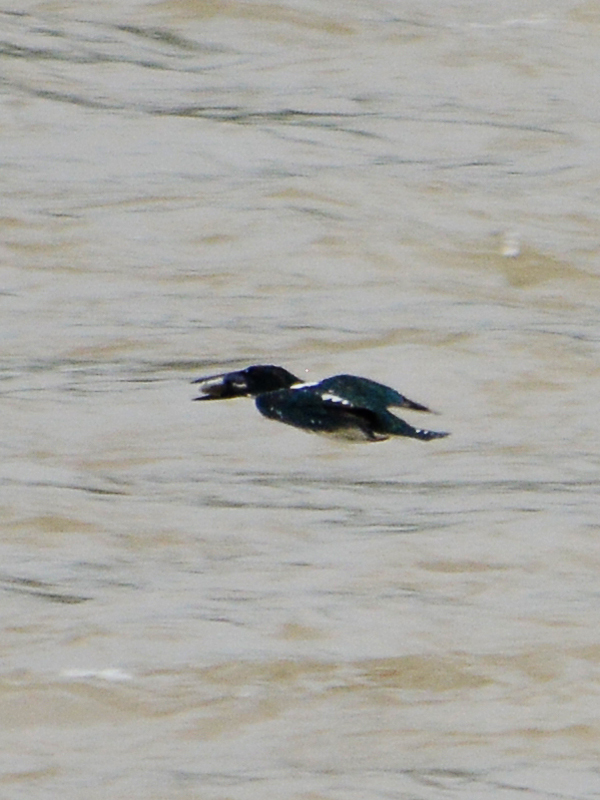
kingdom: Animalia
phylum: Chordata
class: Aves
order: Coraciiformes
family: Alcedinidae
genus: Chloroceryle
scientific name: Chloroceryle americana
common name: Green kingfisher
